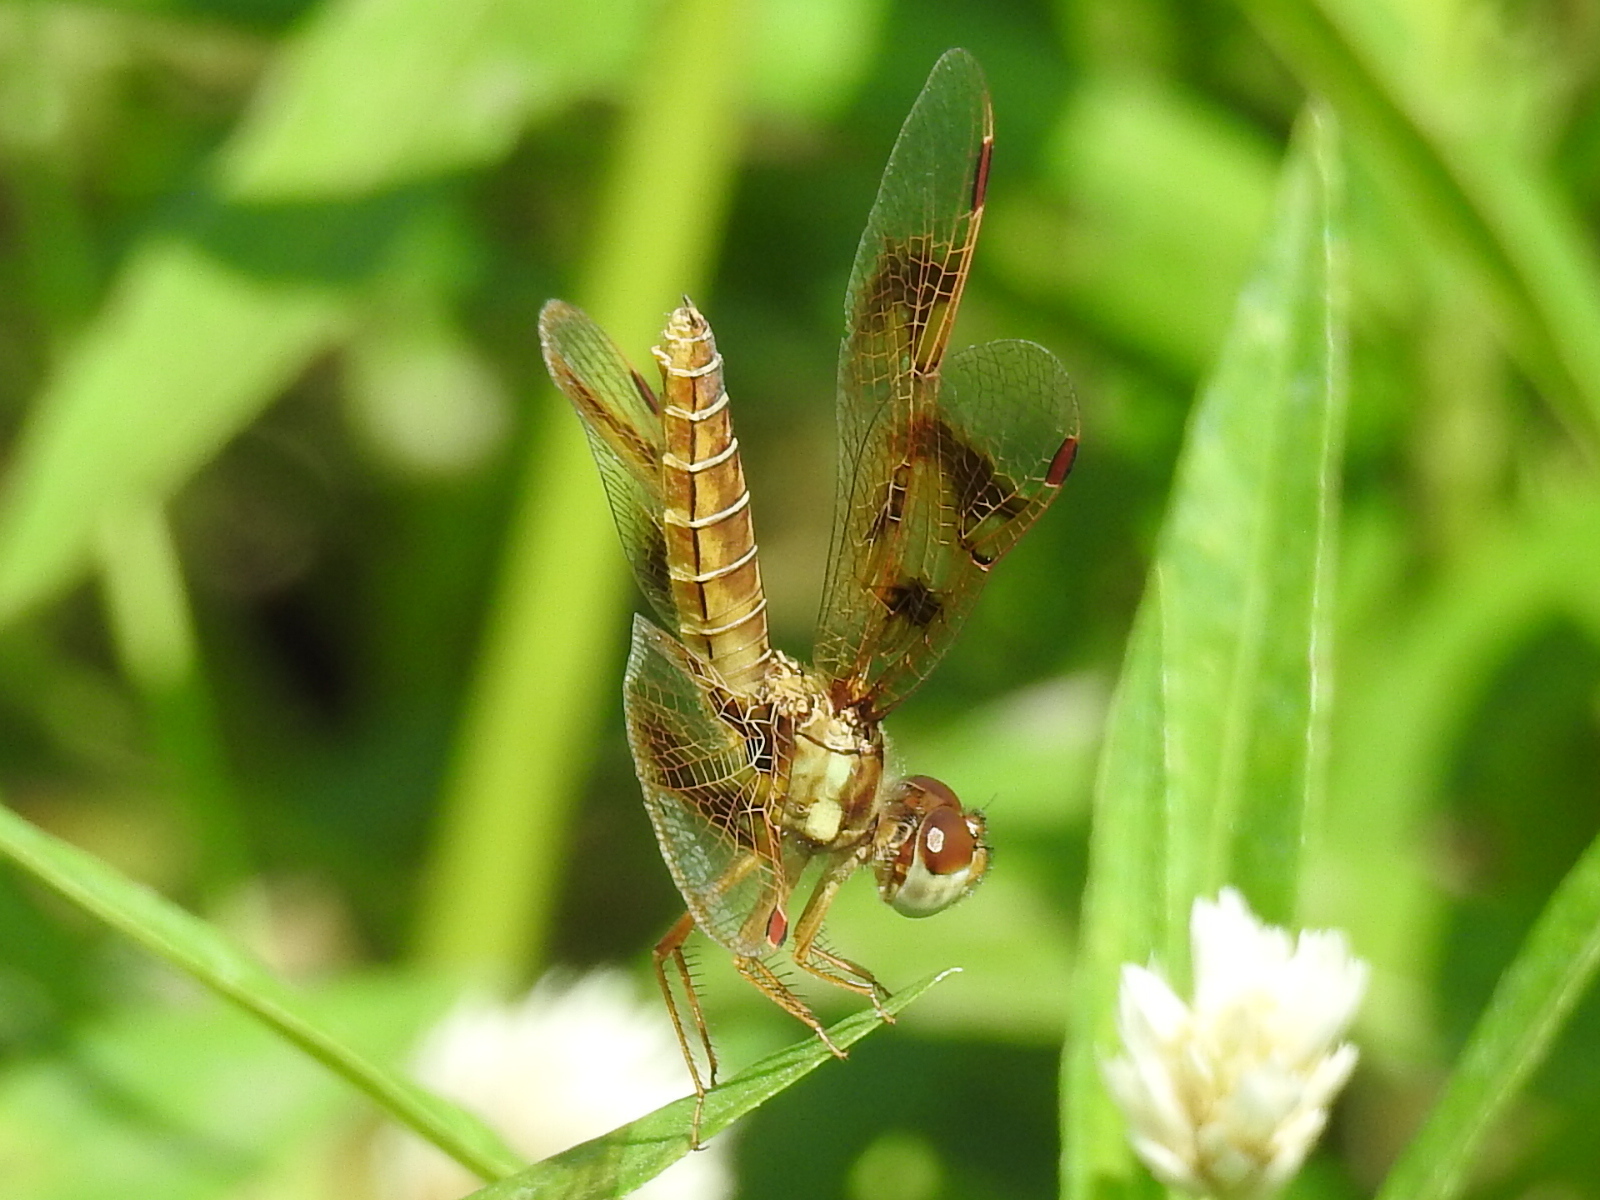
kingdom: Animalia
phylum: Arthropoda
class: Insecta
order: Odonata
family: Libellulidae
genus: Perithemis
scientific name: Perithemis tenera
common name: Eastern amberwing
